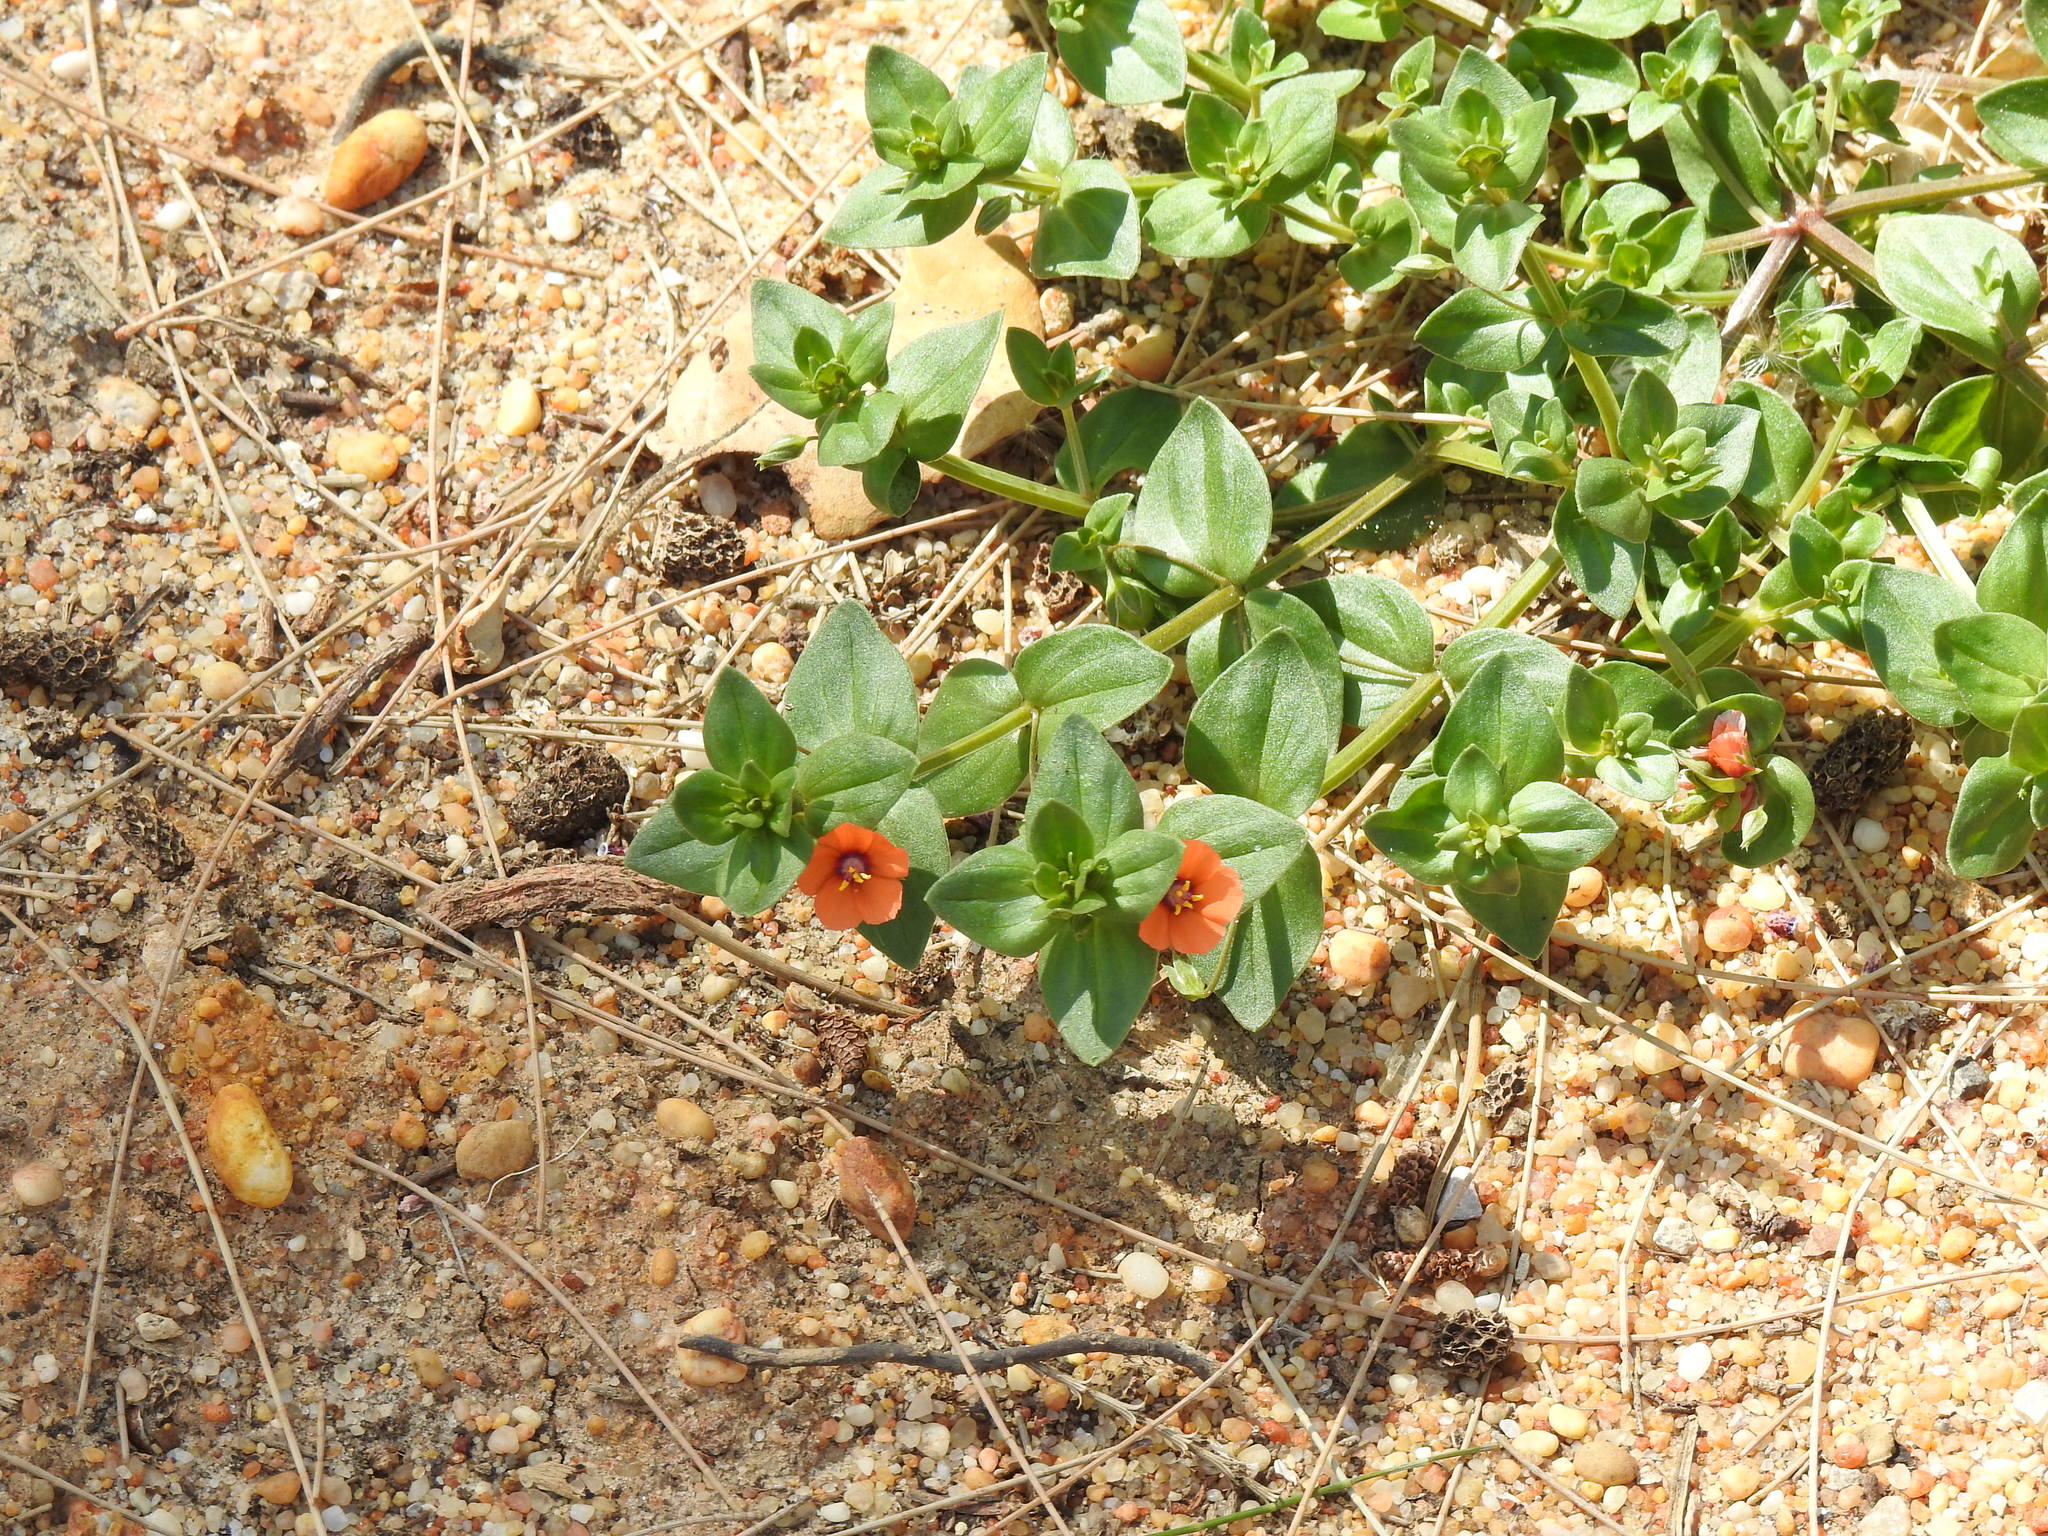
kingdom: Plantae
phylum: Tracheophyta
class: Magnoliopsida
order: Ericales
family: Primulaceae
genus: Lysimachia
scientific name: Lysimachia arvensis
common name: Scarlet pimpernel
